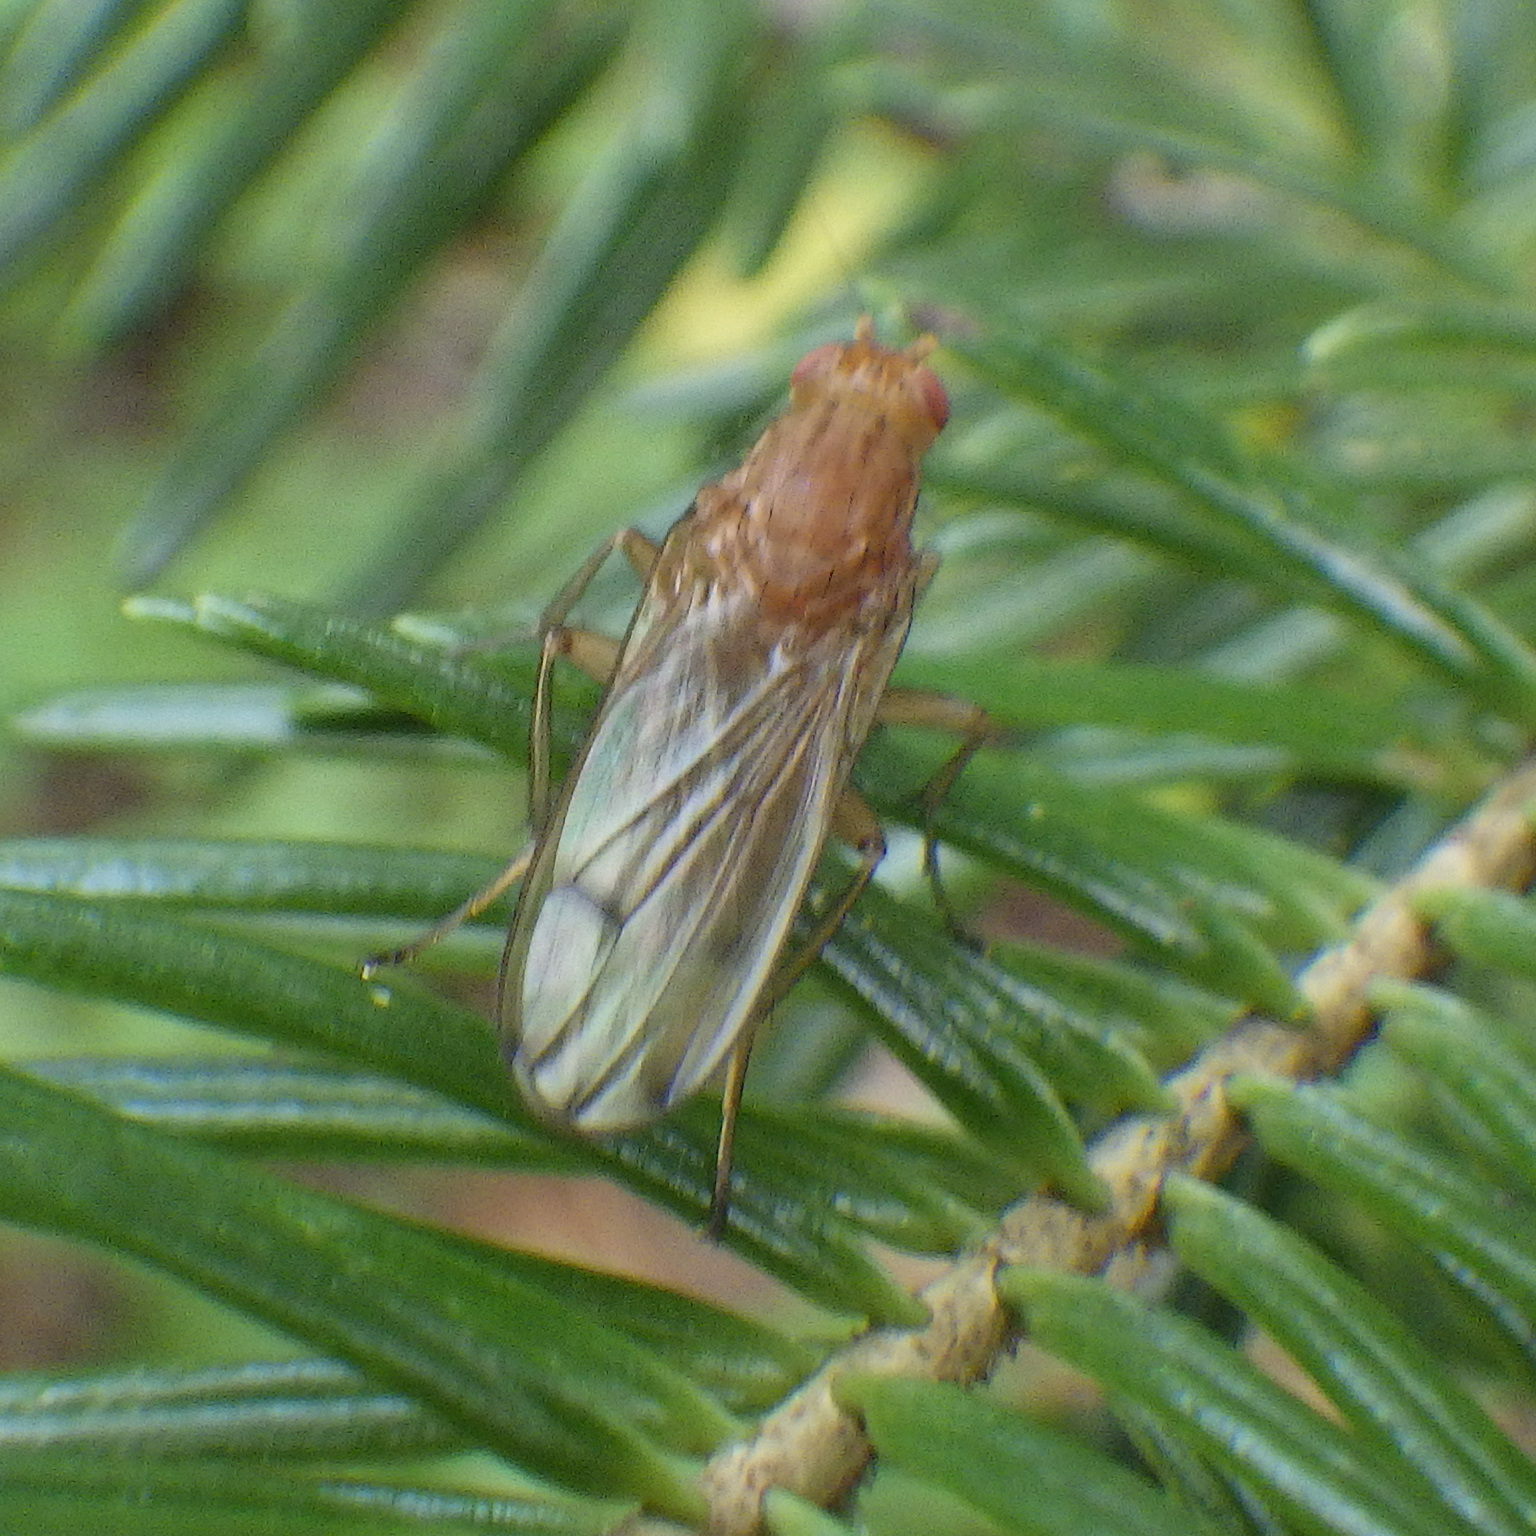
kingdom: Animalia
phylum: Arthropoda
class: Insecta
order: Diptera
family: Heleomyzidae
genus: Amoebaleria
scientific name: Amoebaleria helvola
